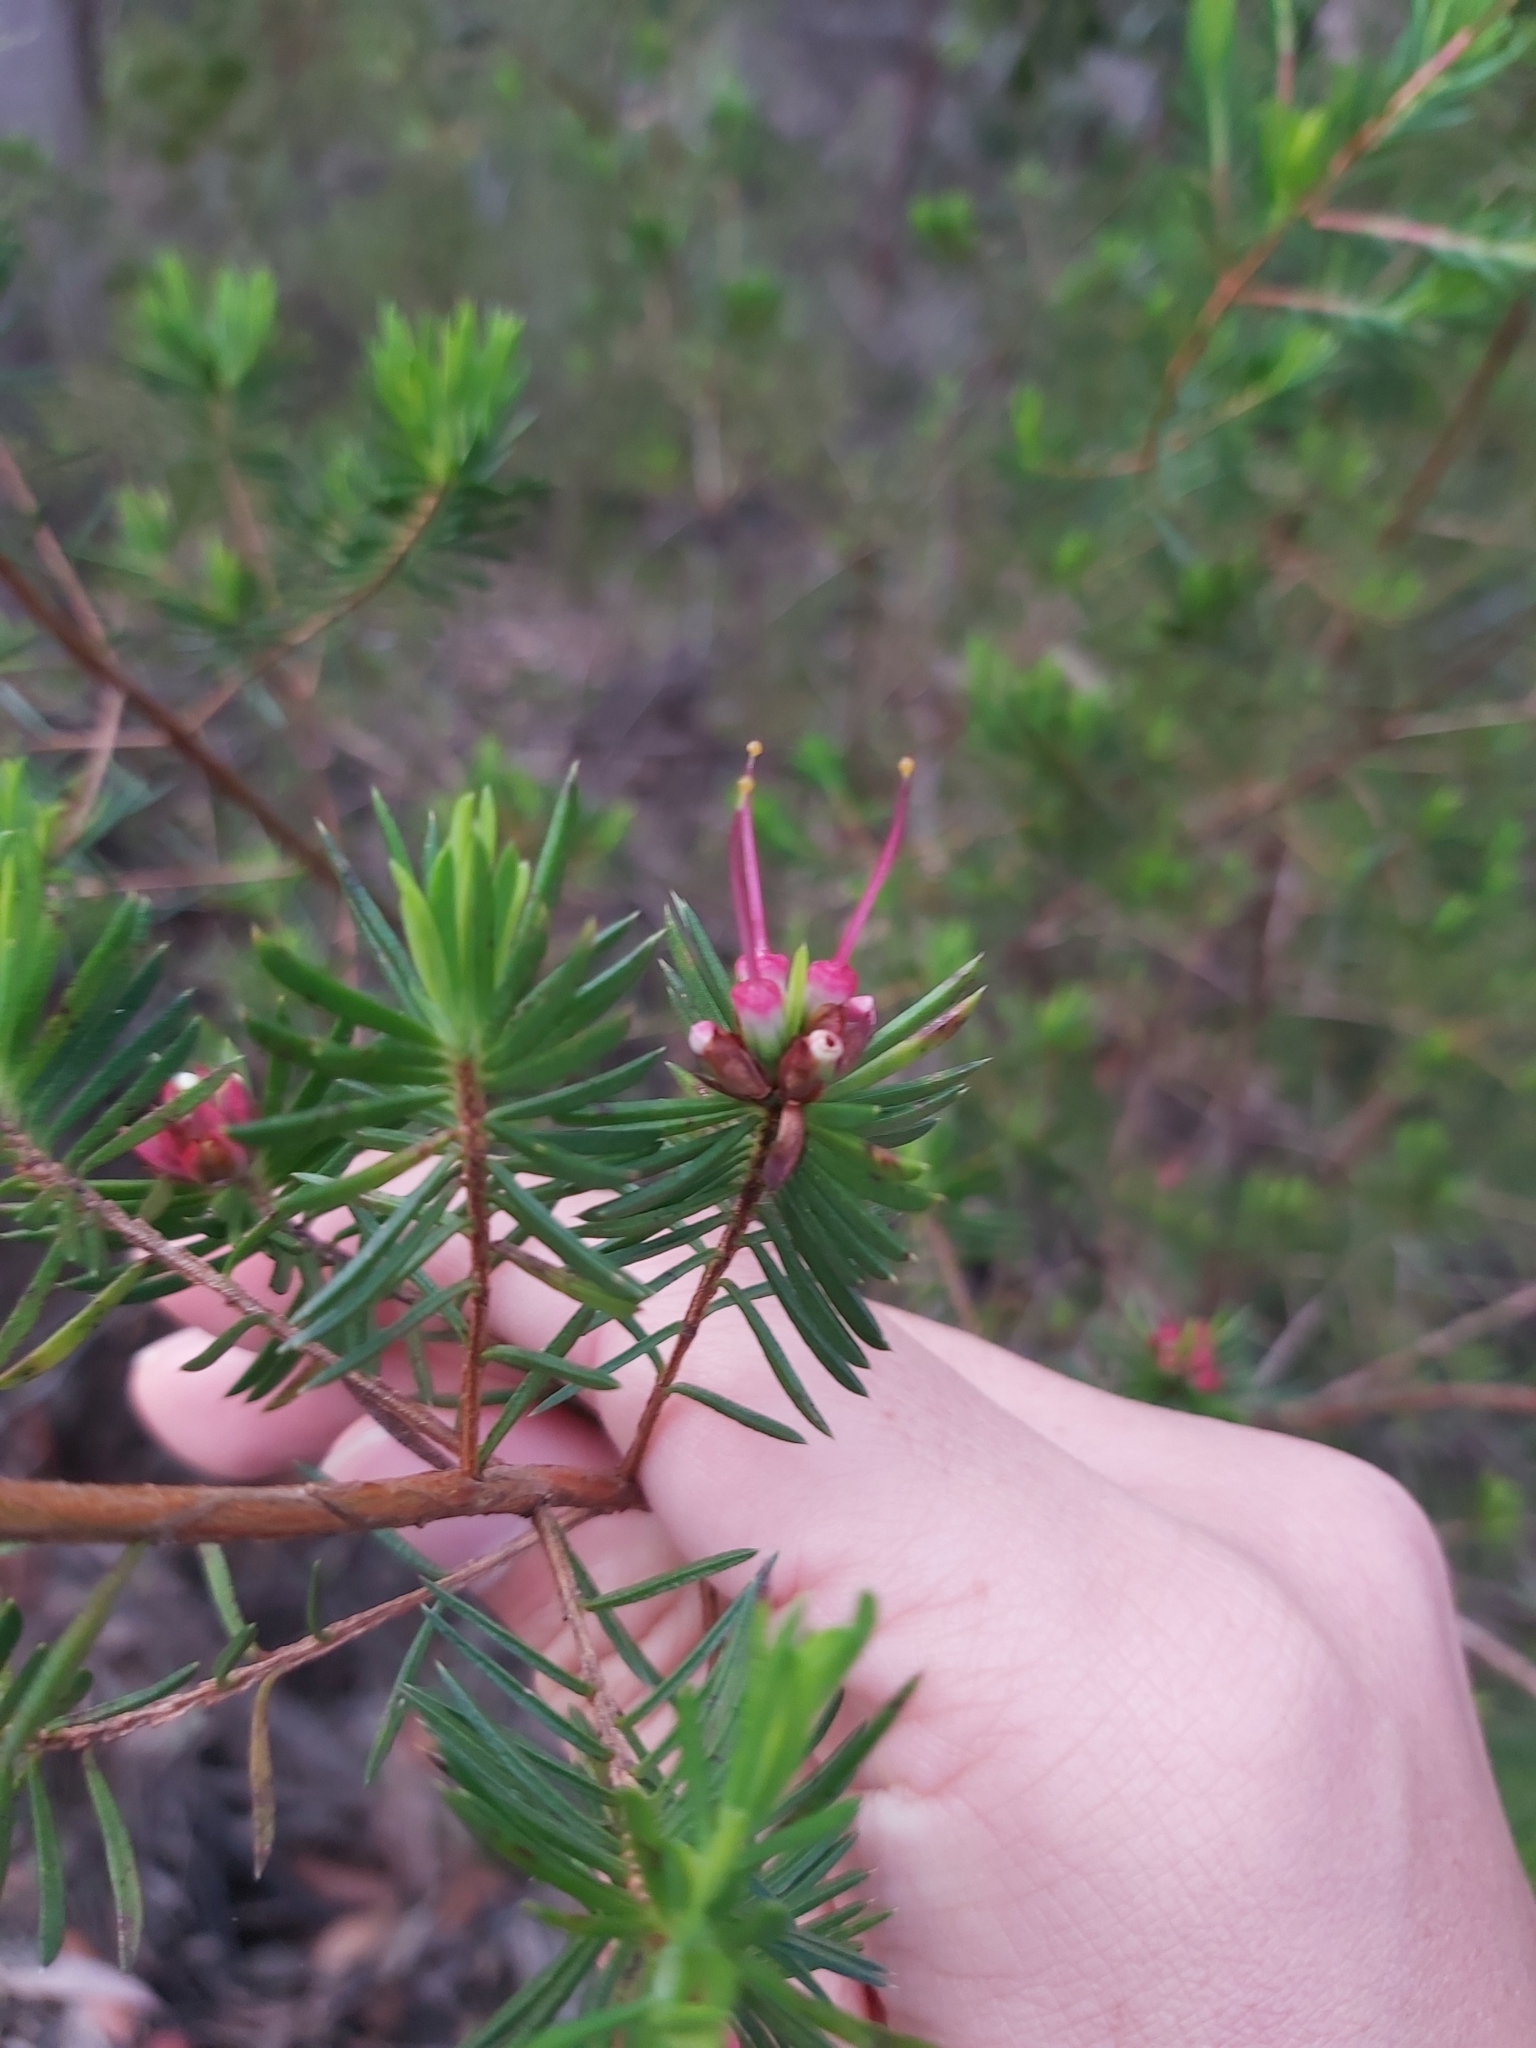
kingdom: Plantae
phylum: Tracheophyta
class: Magnoliopsida
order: Myrtales
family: Myrtaceae
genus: Darwinia
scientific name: Darwinia procera
